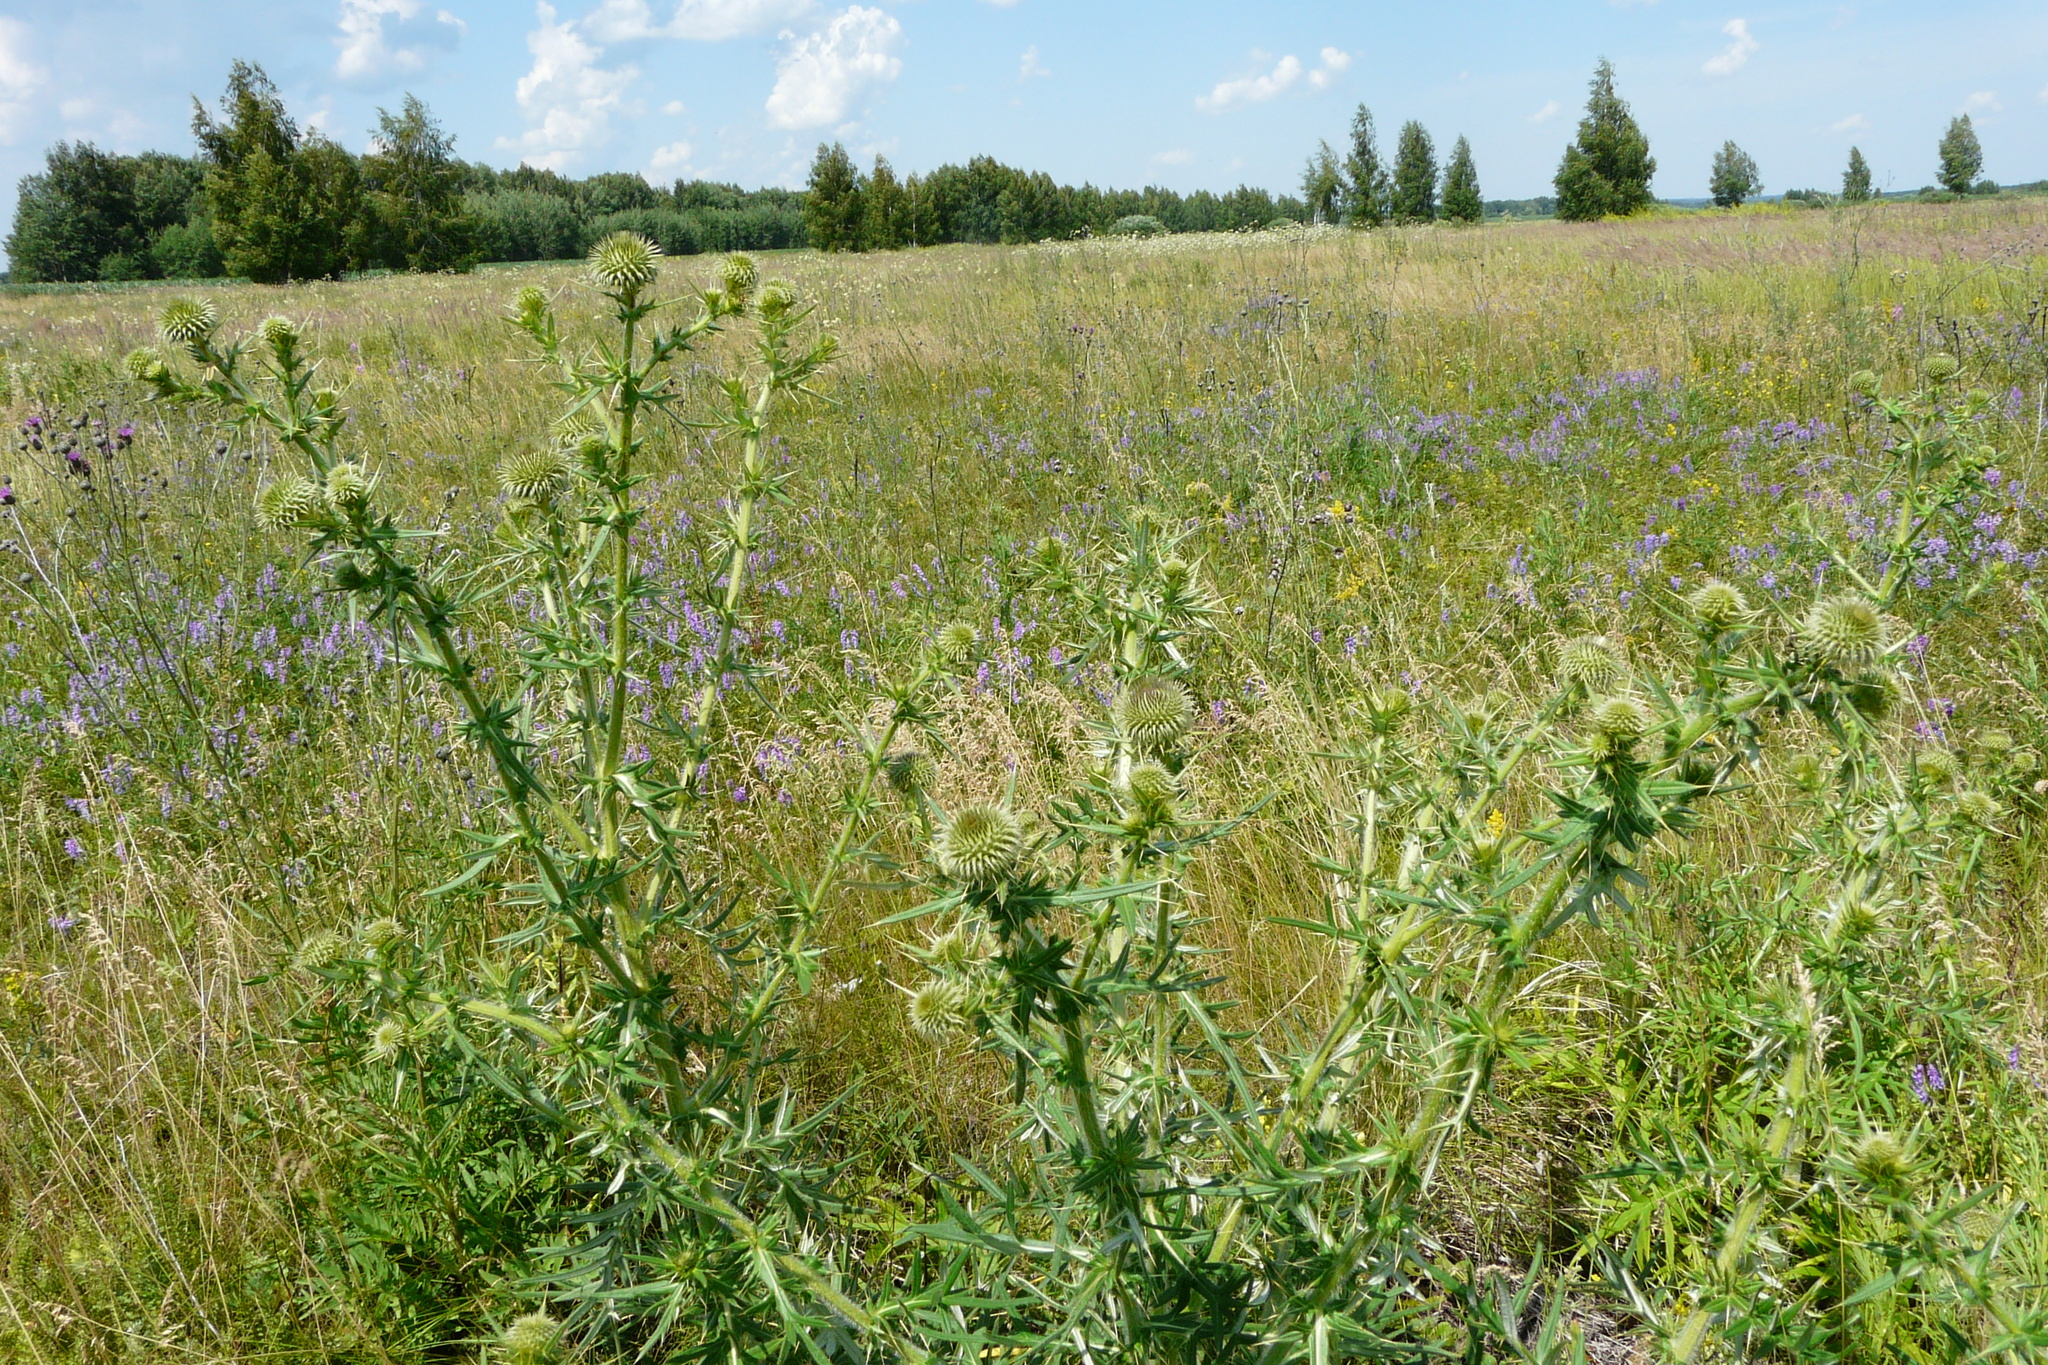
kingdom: Plantae
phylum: Tracheophyta
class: Magnoliopsida
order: Asterales
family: Asteraceae
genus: Cirsium
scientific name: Cirsium serrulatum
